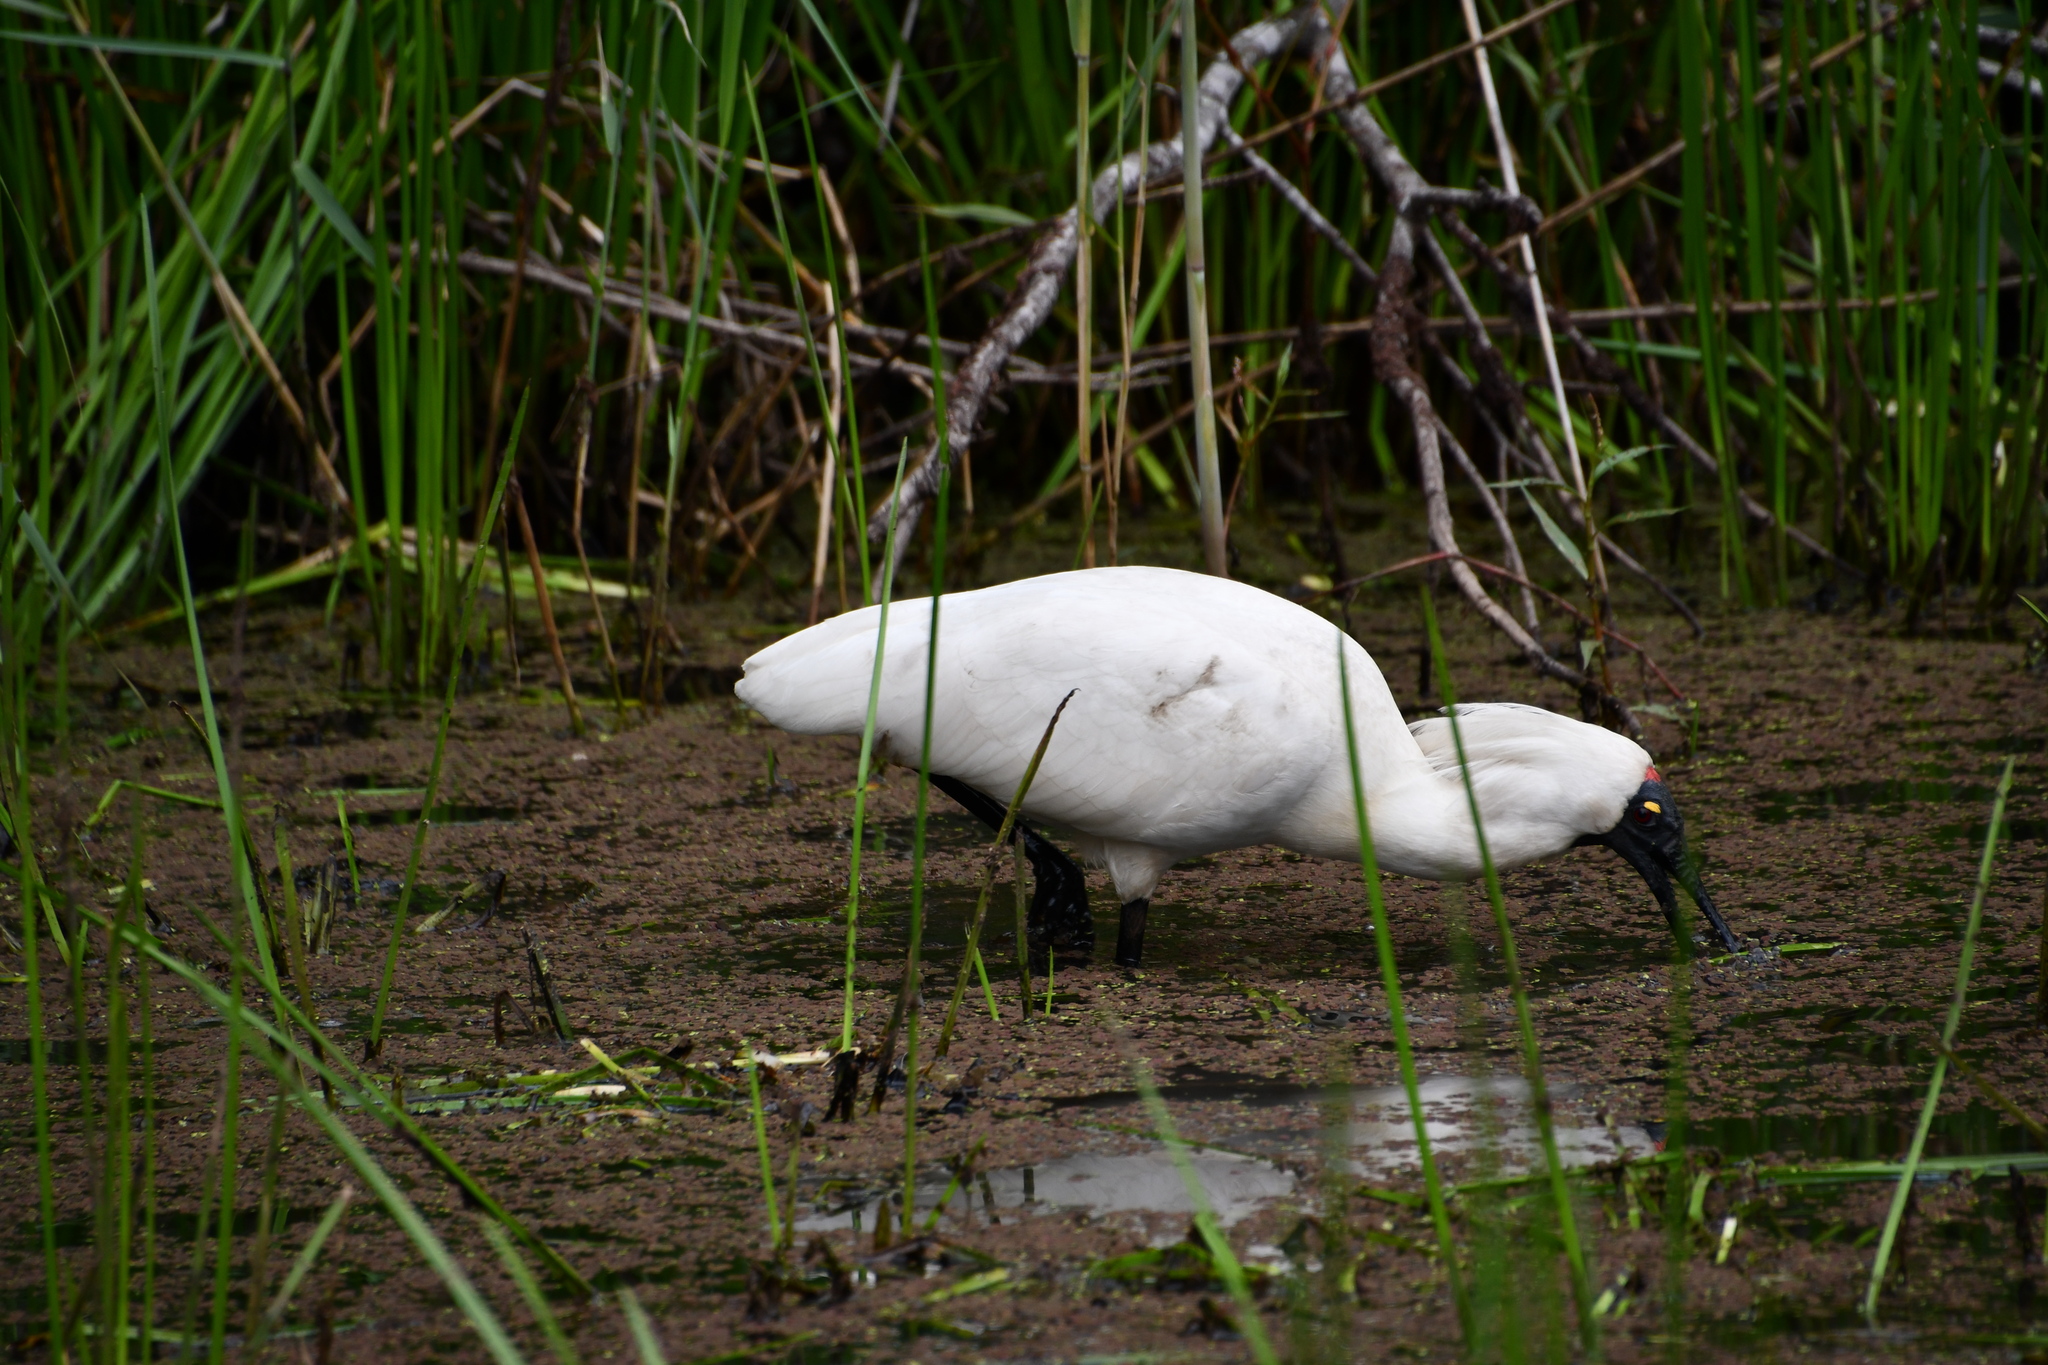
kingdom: Animalia
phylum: Chordata
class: Aves
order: Pelecaniformes
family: Threskiornithidae
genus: Platalea
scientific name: Platalea regia
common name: Royal spoonbill
